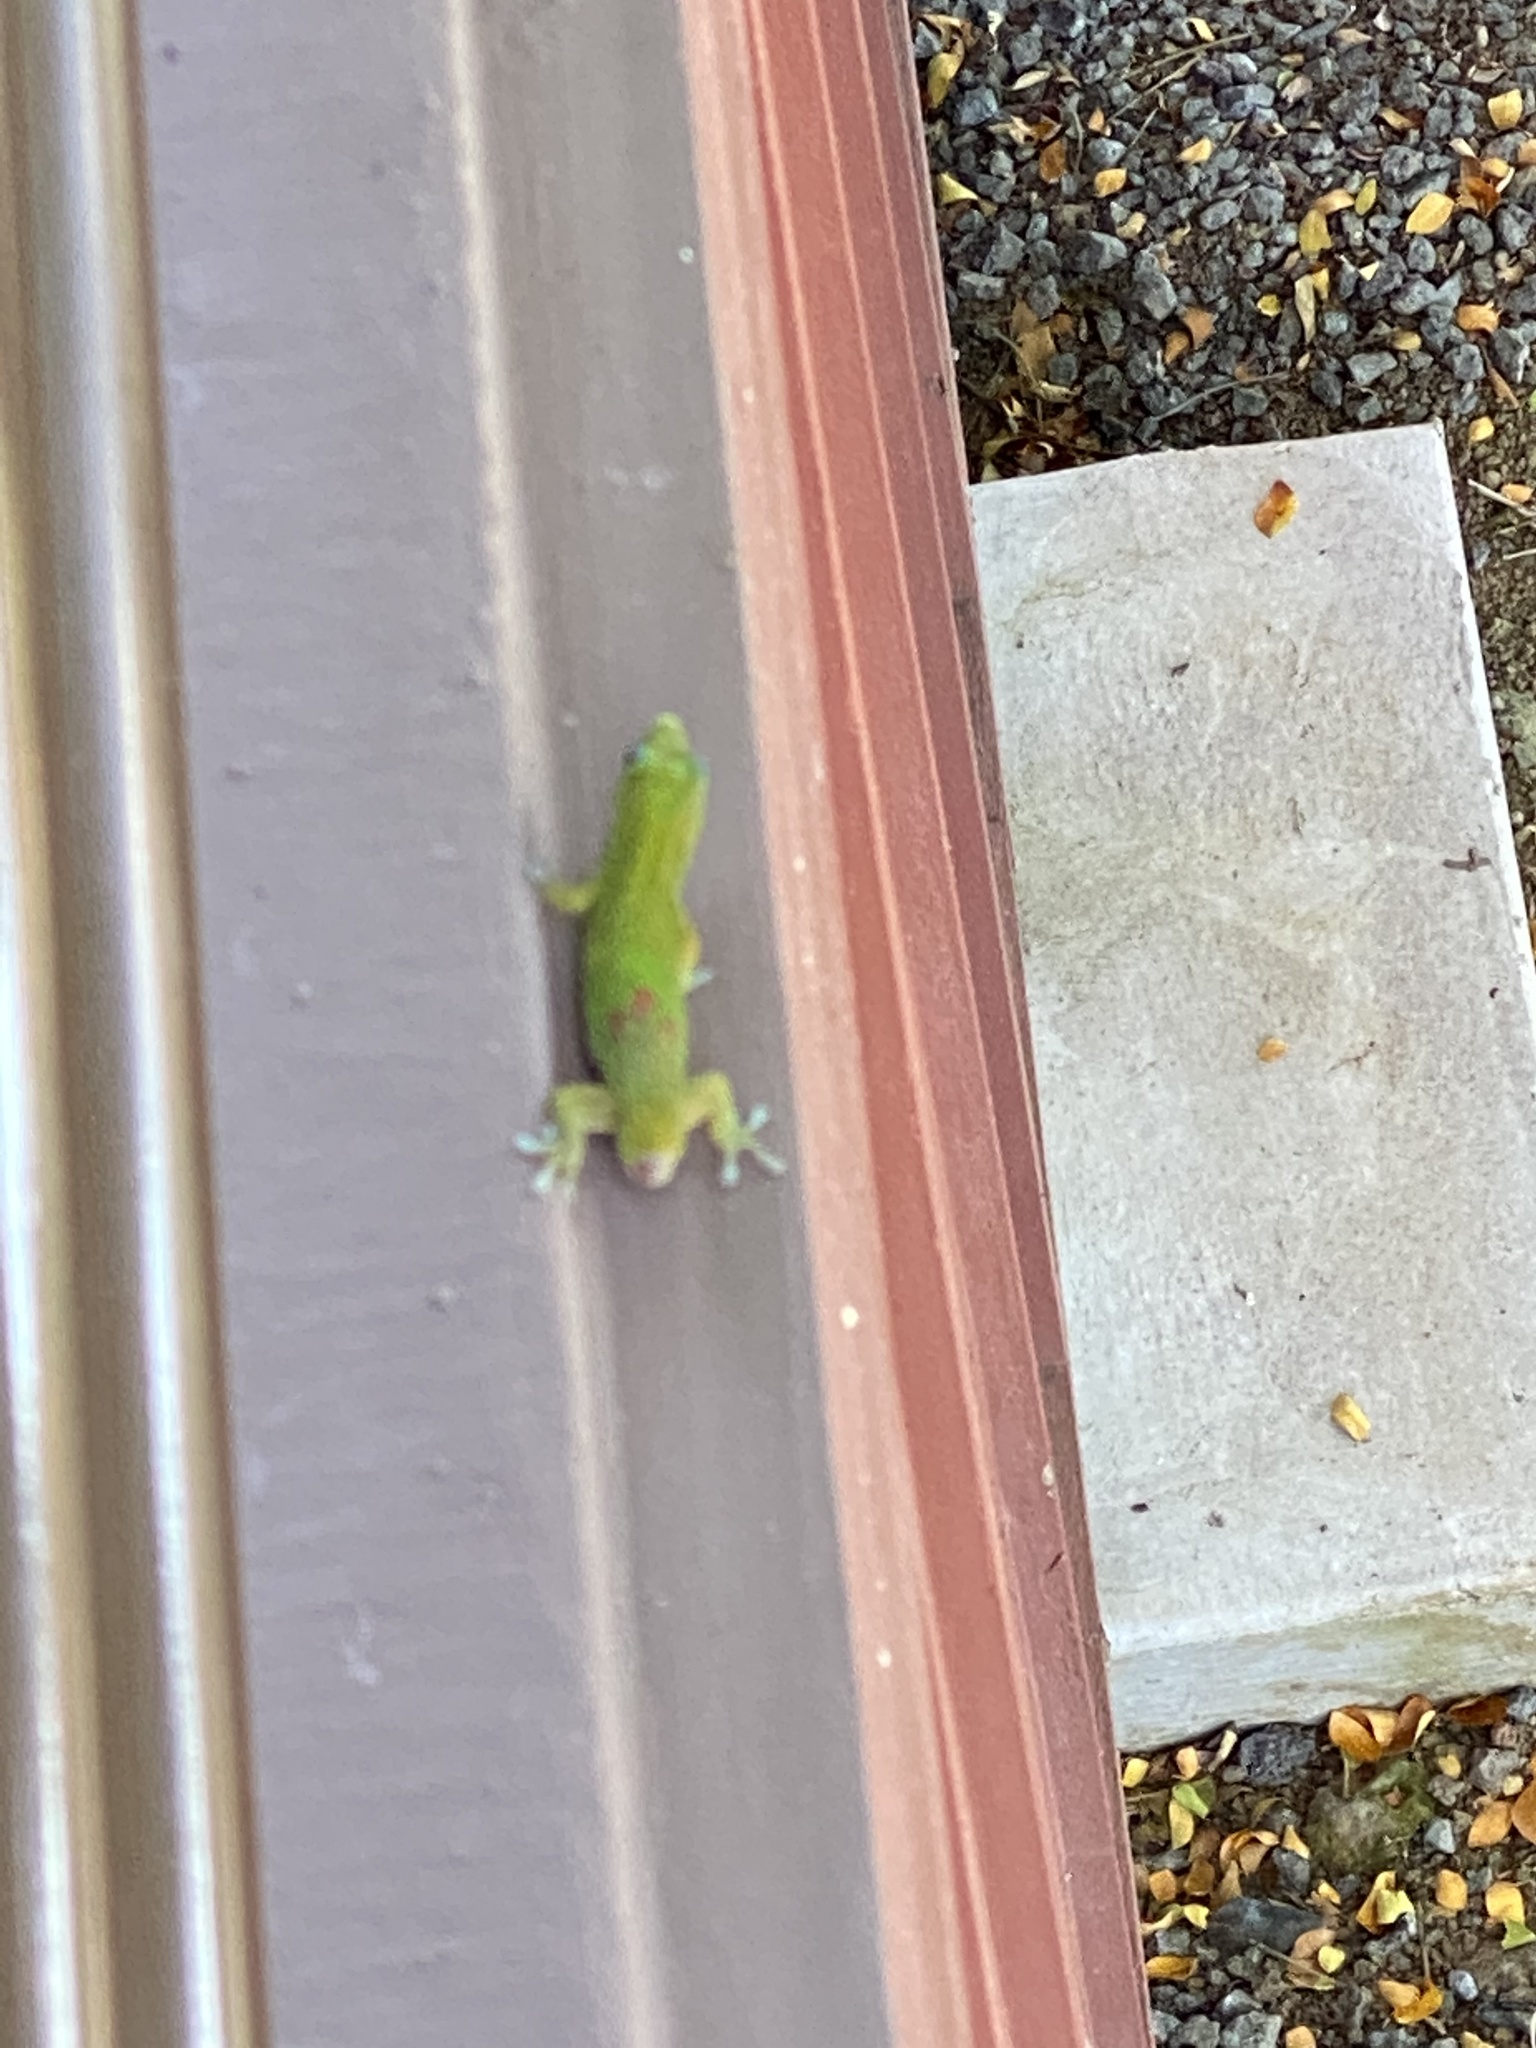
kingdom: Animalia
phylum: Chordata
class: Squamata
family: Gekkonidae
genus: Phelsuma
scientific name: Phelsuma laticauda
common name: Gold dust day gecko
